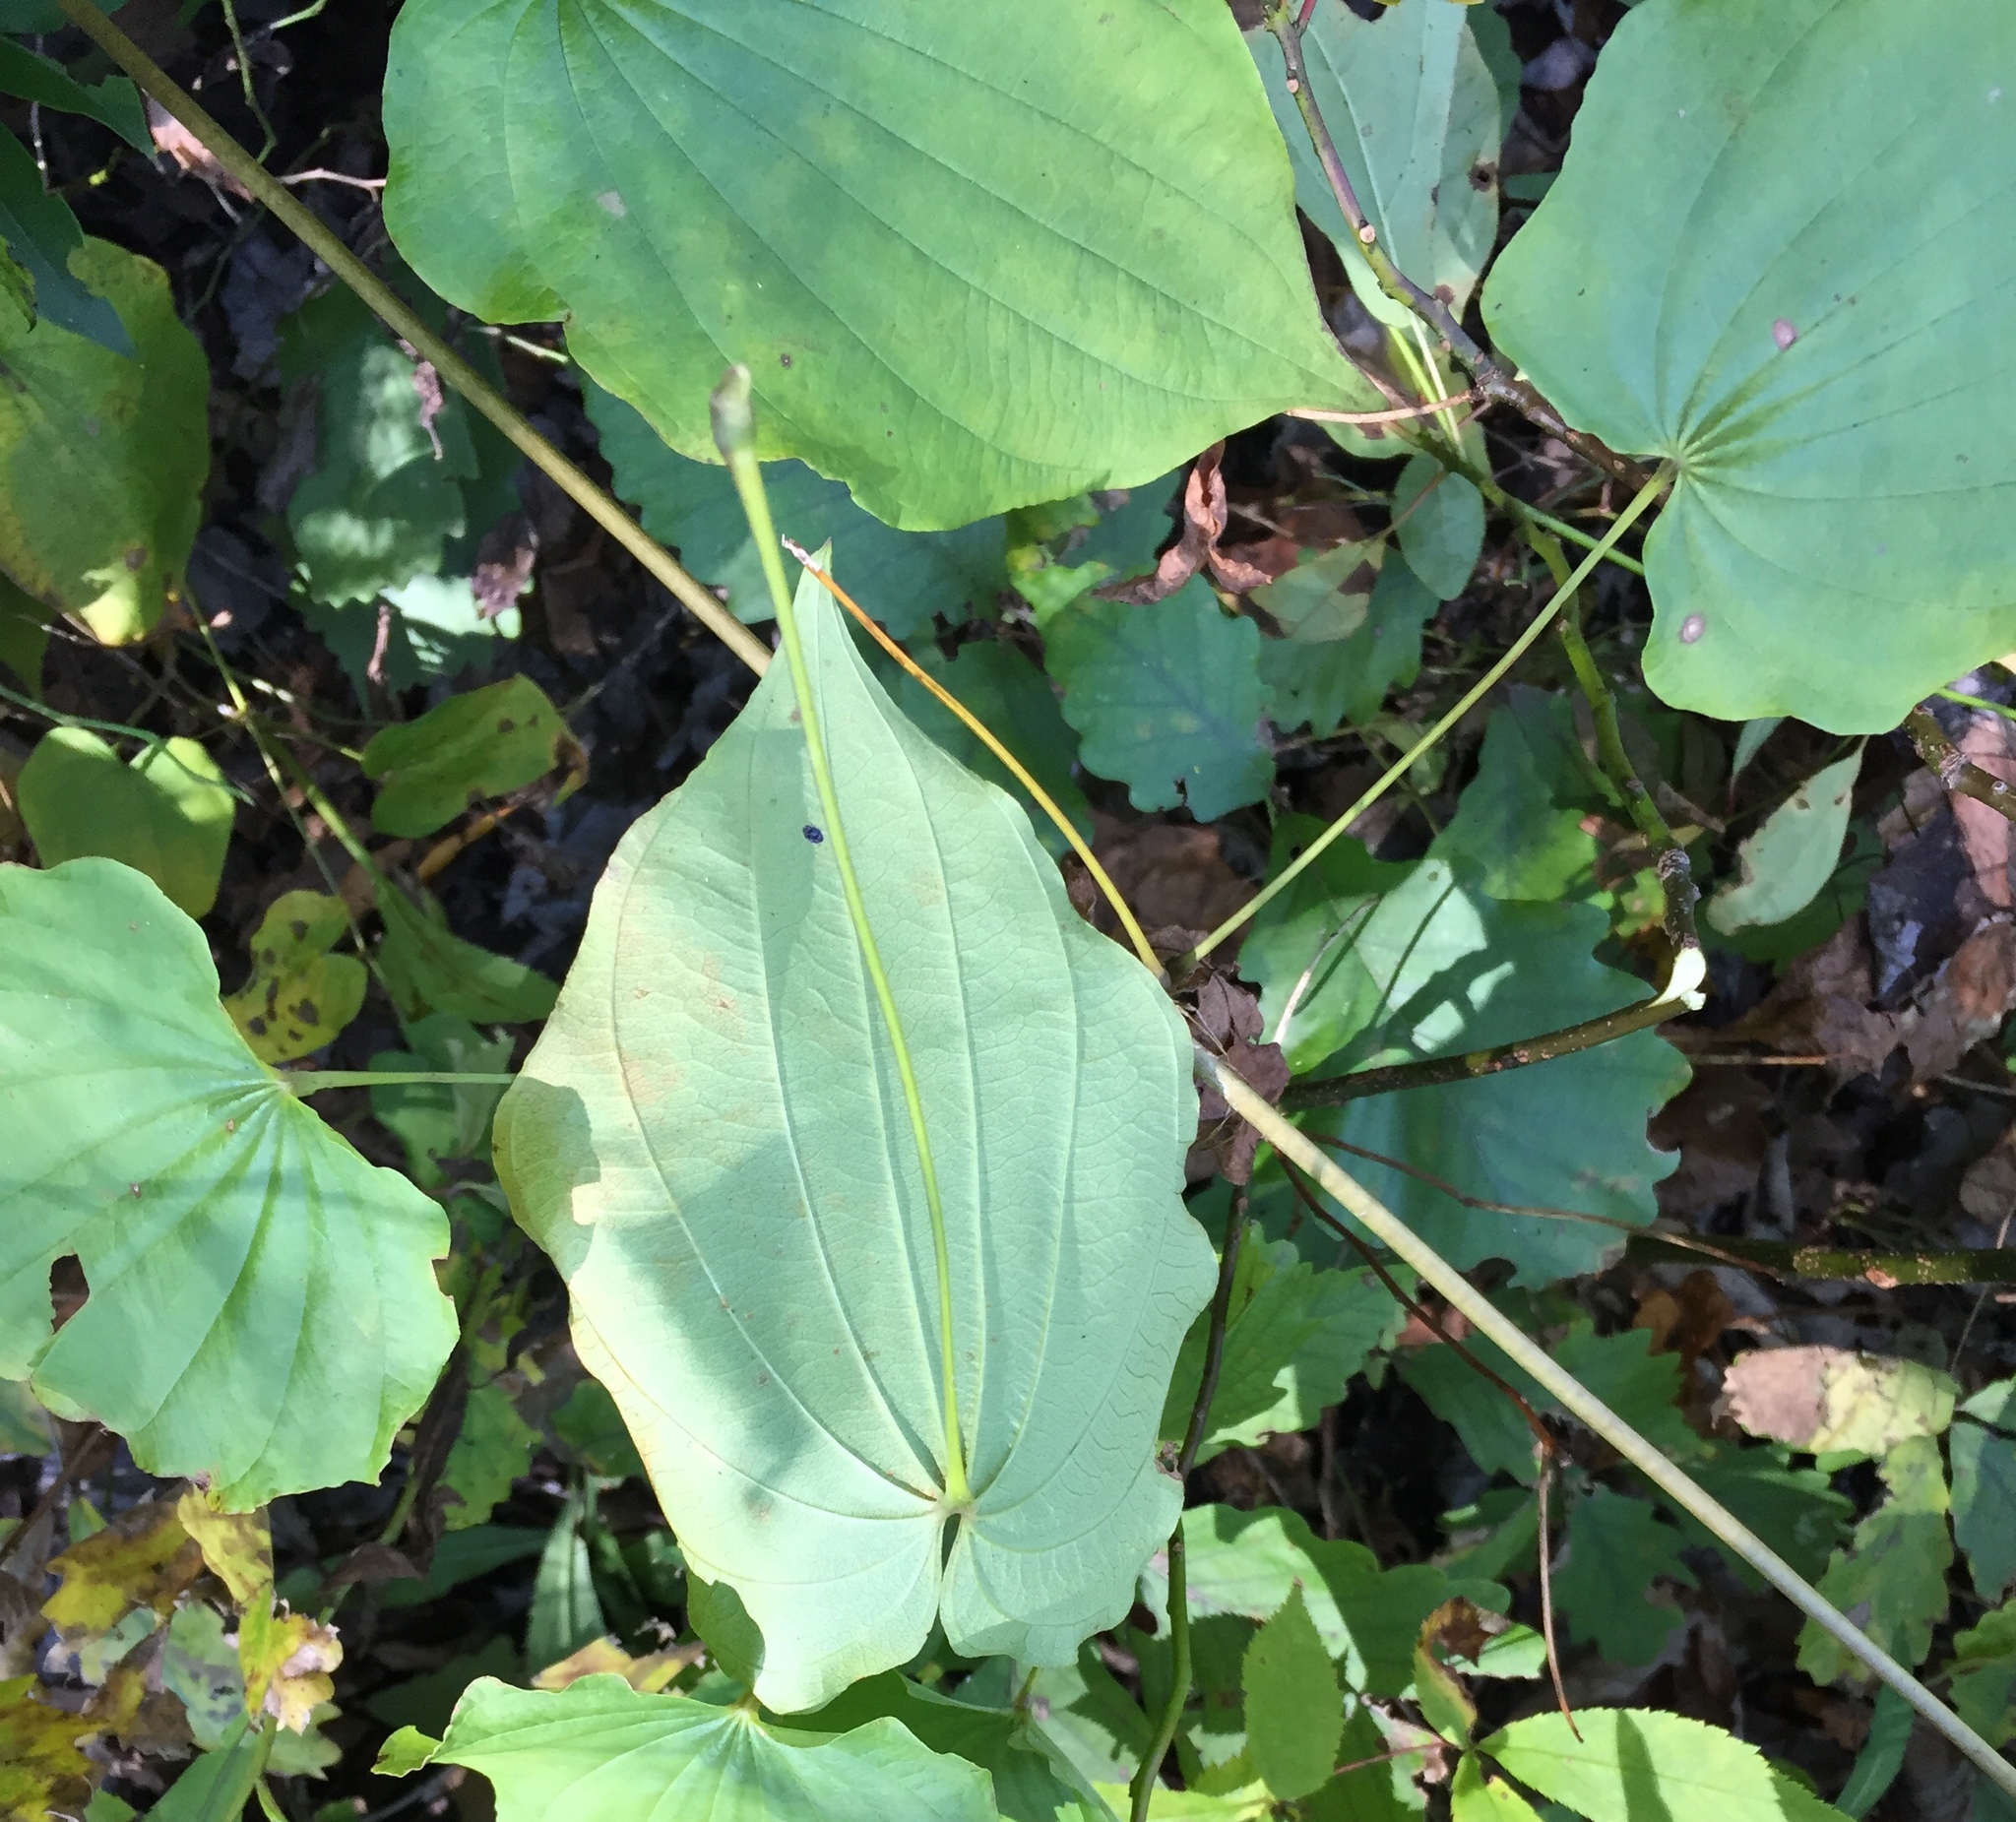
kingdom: Plantae
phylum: Tracheophyta
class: Liliopsida
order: Dioscoreales
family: Dioscoreaceae
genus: Dioscorea
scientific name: Dioscorea villosa
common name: Wild yam
